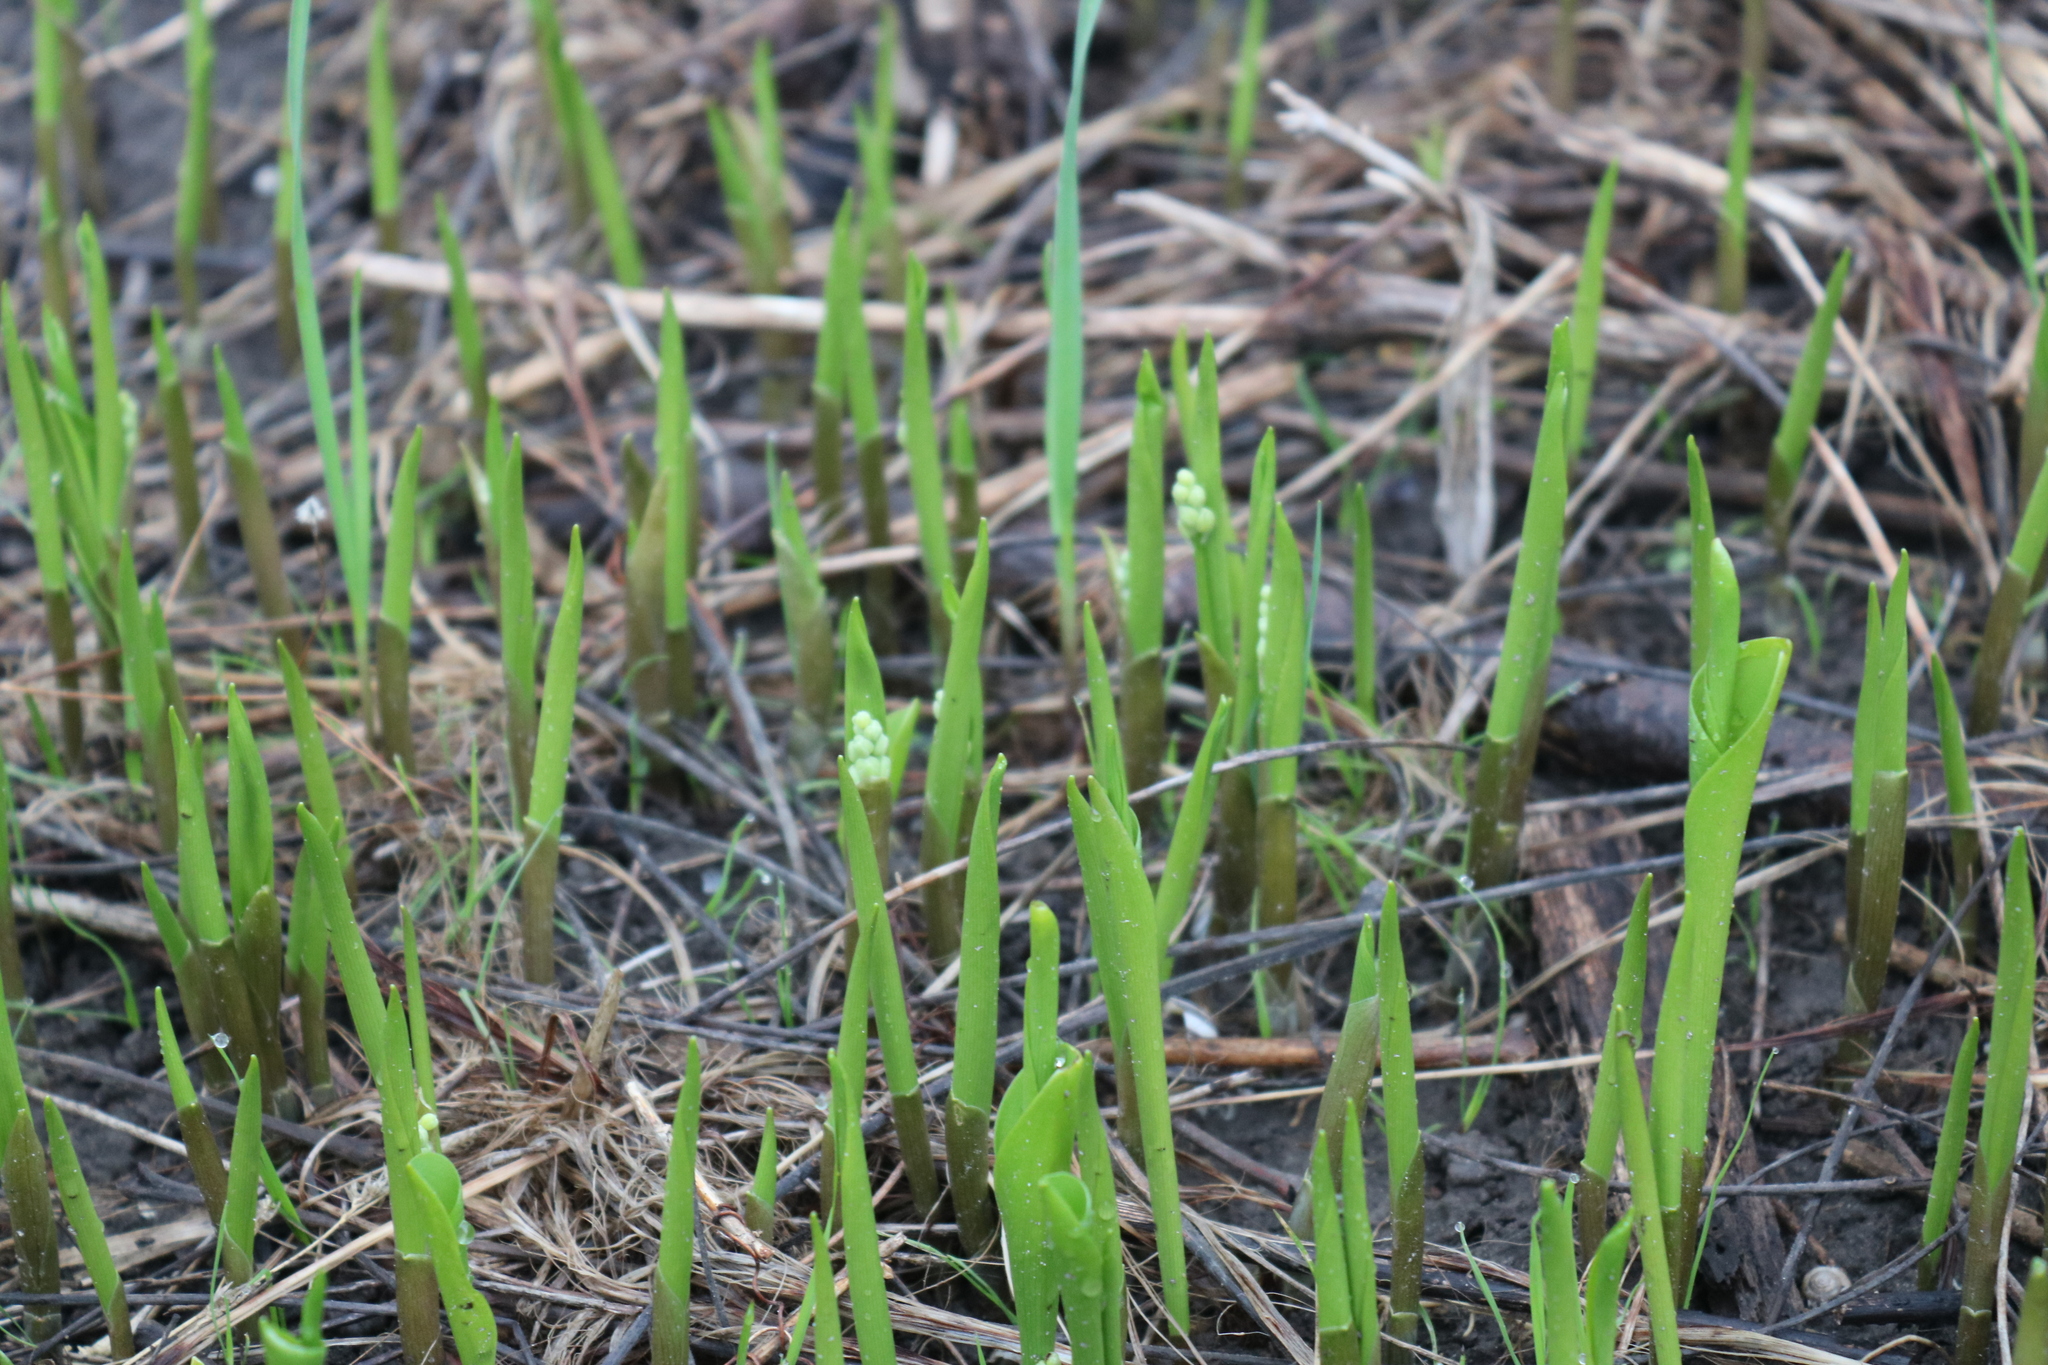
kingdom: Plantae
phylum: Tracheophyta
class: Liliopsida
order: Asparagales
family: Asparagaceae
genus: Convallaria
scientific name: Convallaria majalis
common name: Lily-of-the-valley
